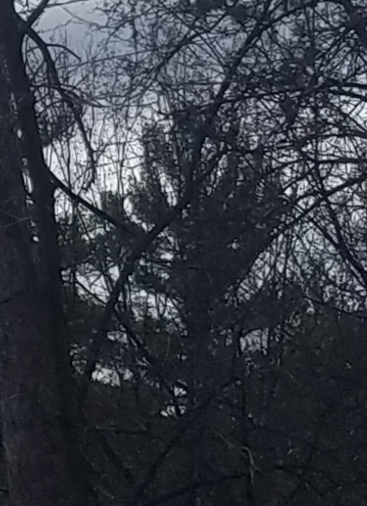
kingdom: Plantae
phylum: Tracheophyta
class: Pinopsida
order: Pinales
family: Pinaceae
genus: Pinus
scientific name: Pinus strobus
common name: Weymouth pine
